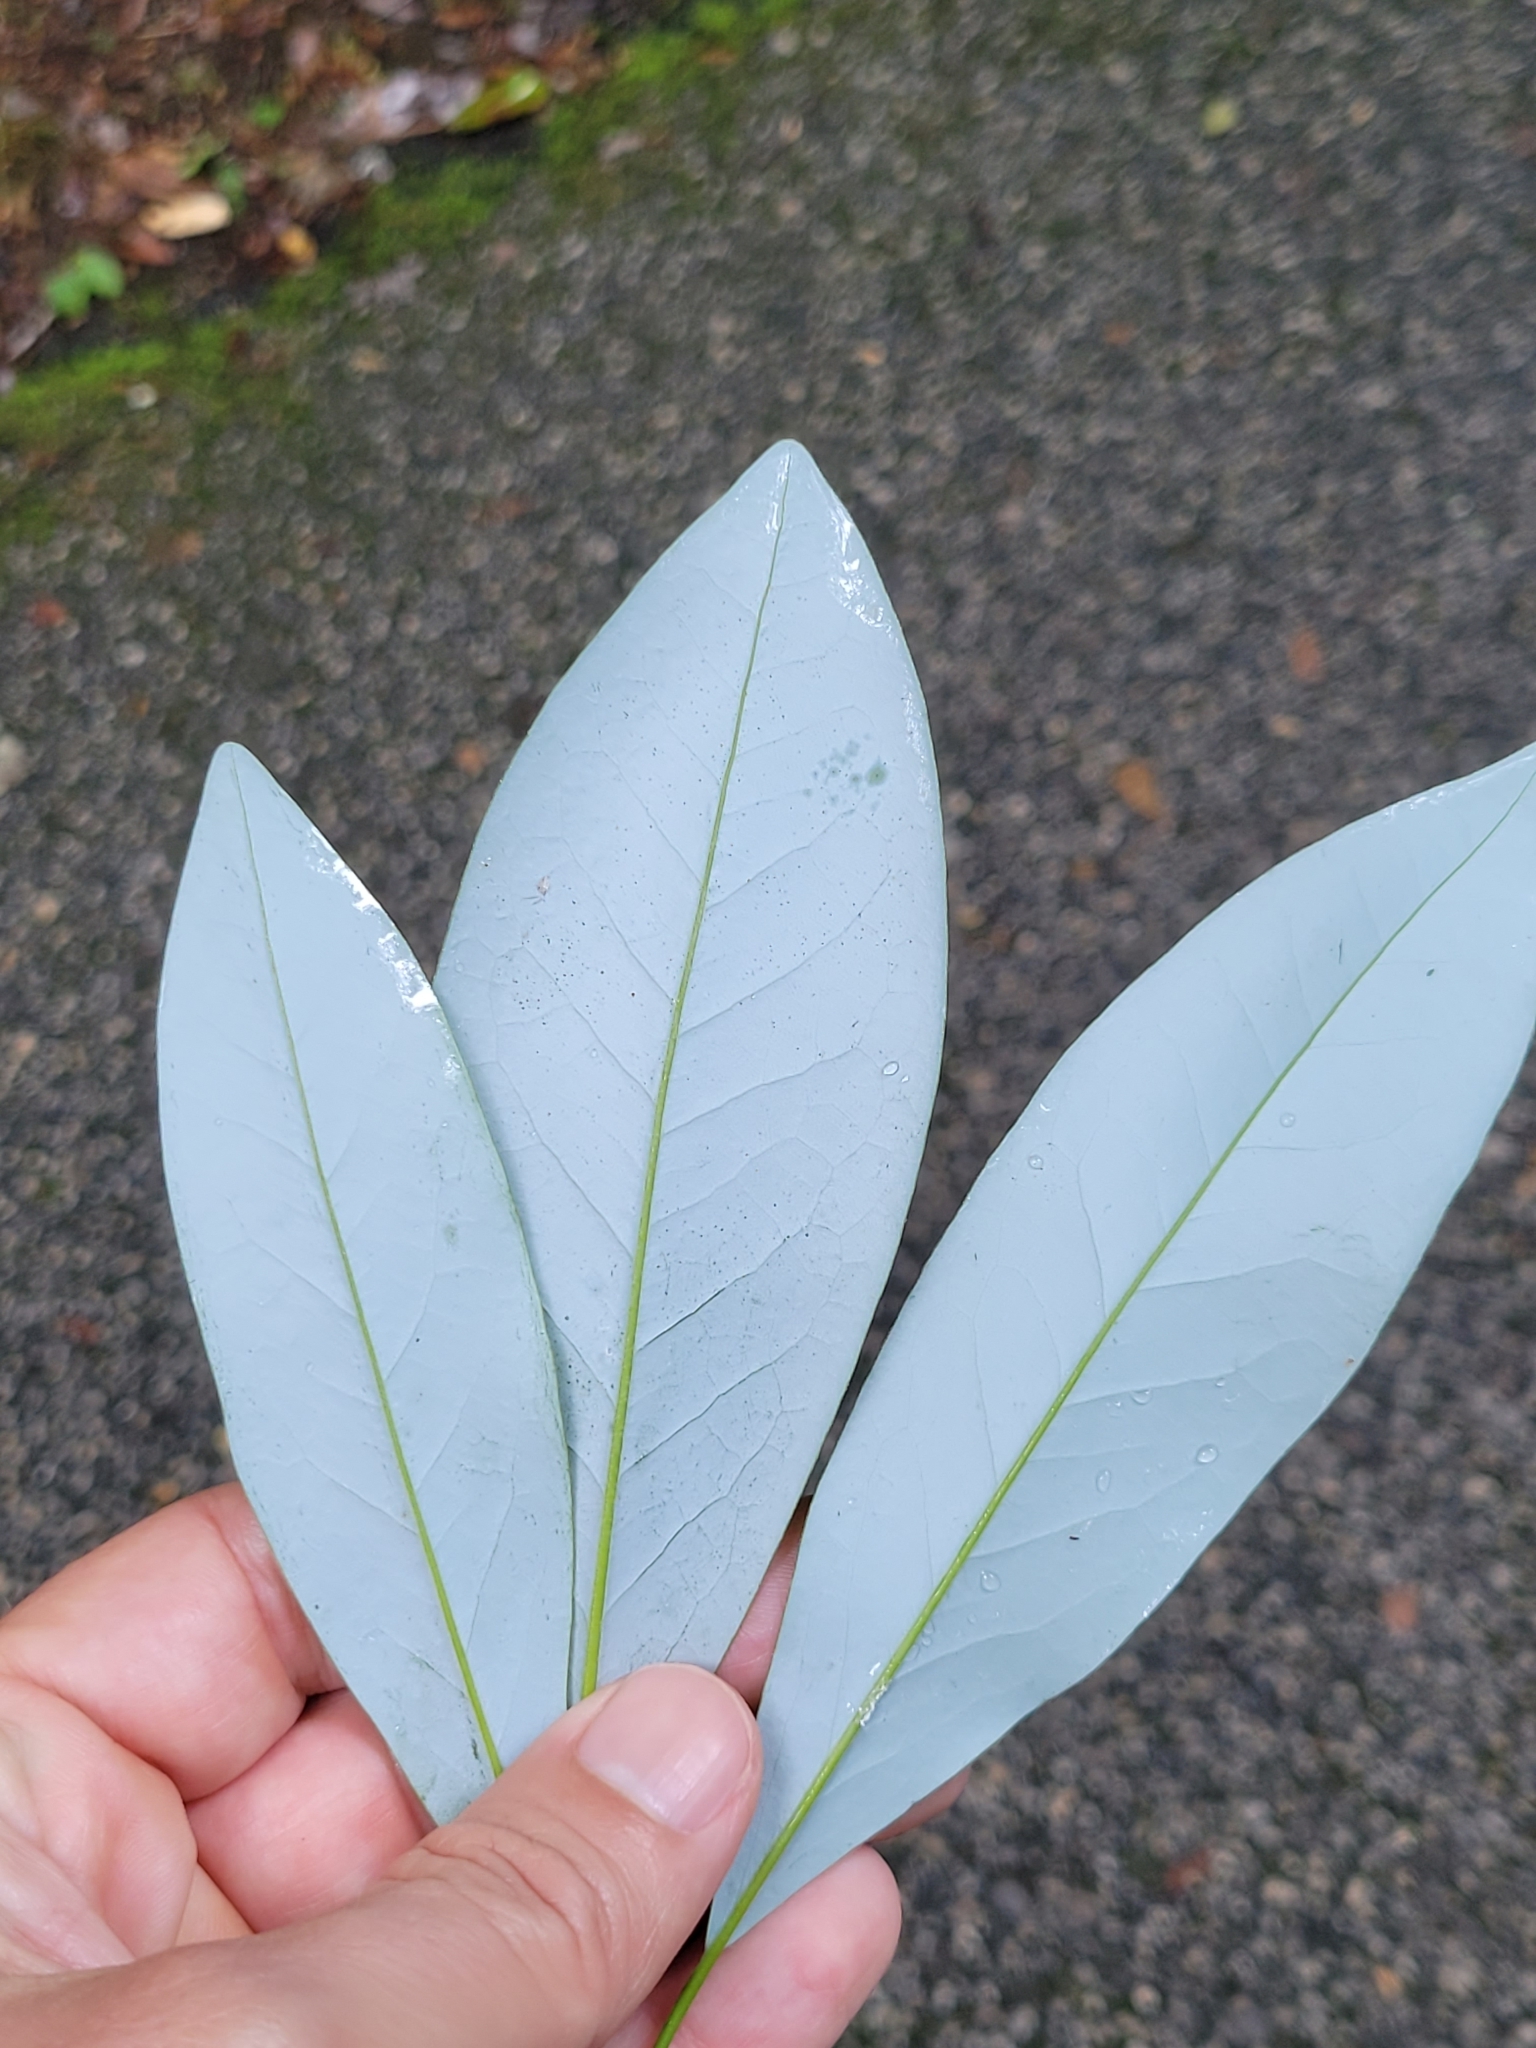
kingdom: Plantae
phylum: Tracheophyta
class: Magnoliopsida
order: Magnoliales
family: Magnoliaceae
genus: Magnolia
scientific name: Magnolia virginiana
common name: Swamp bay
